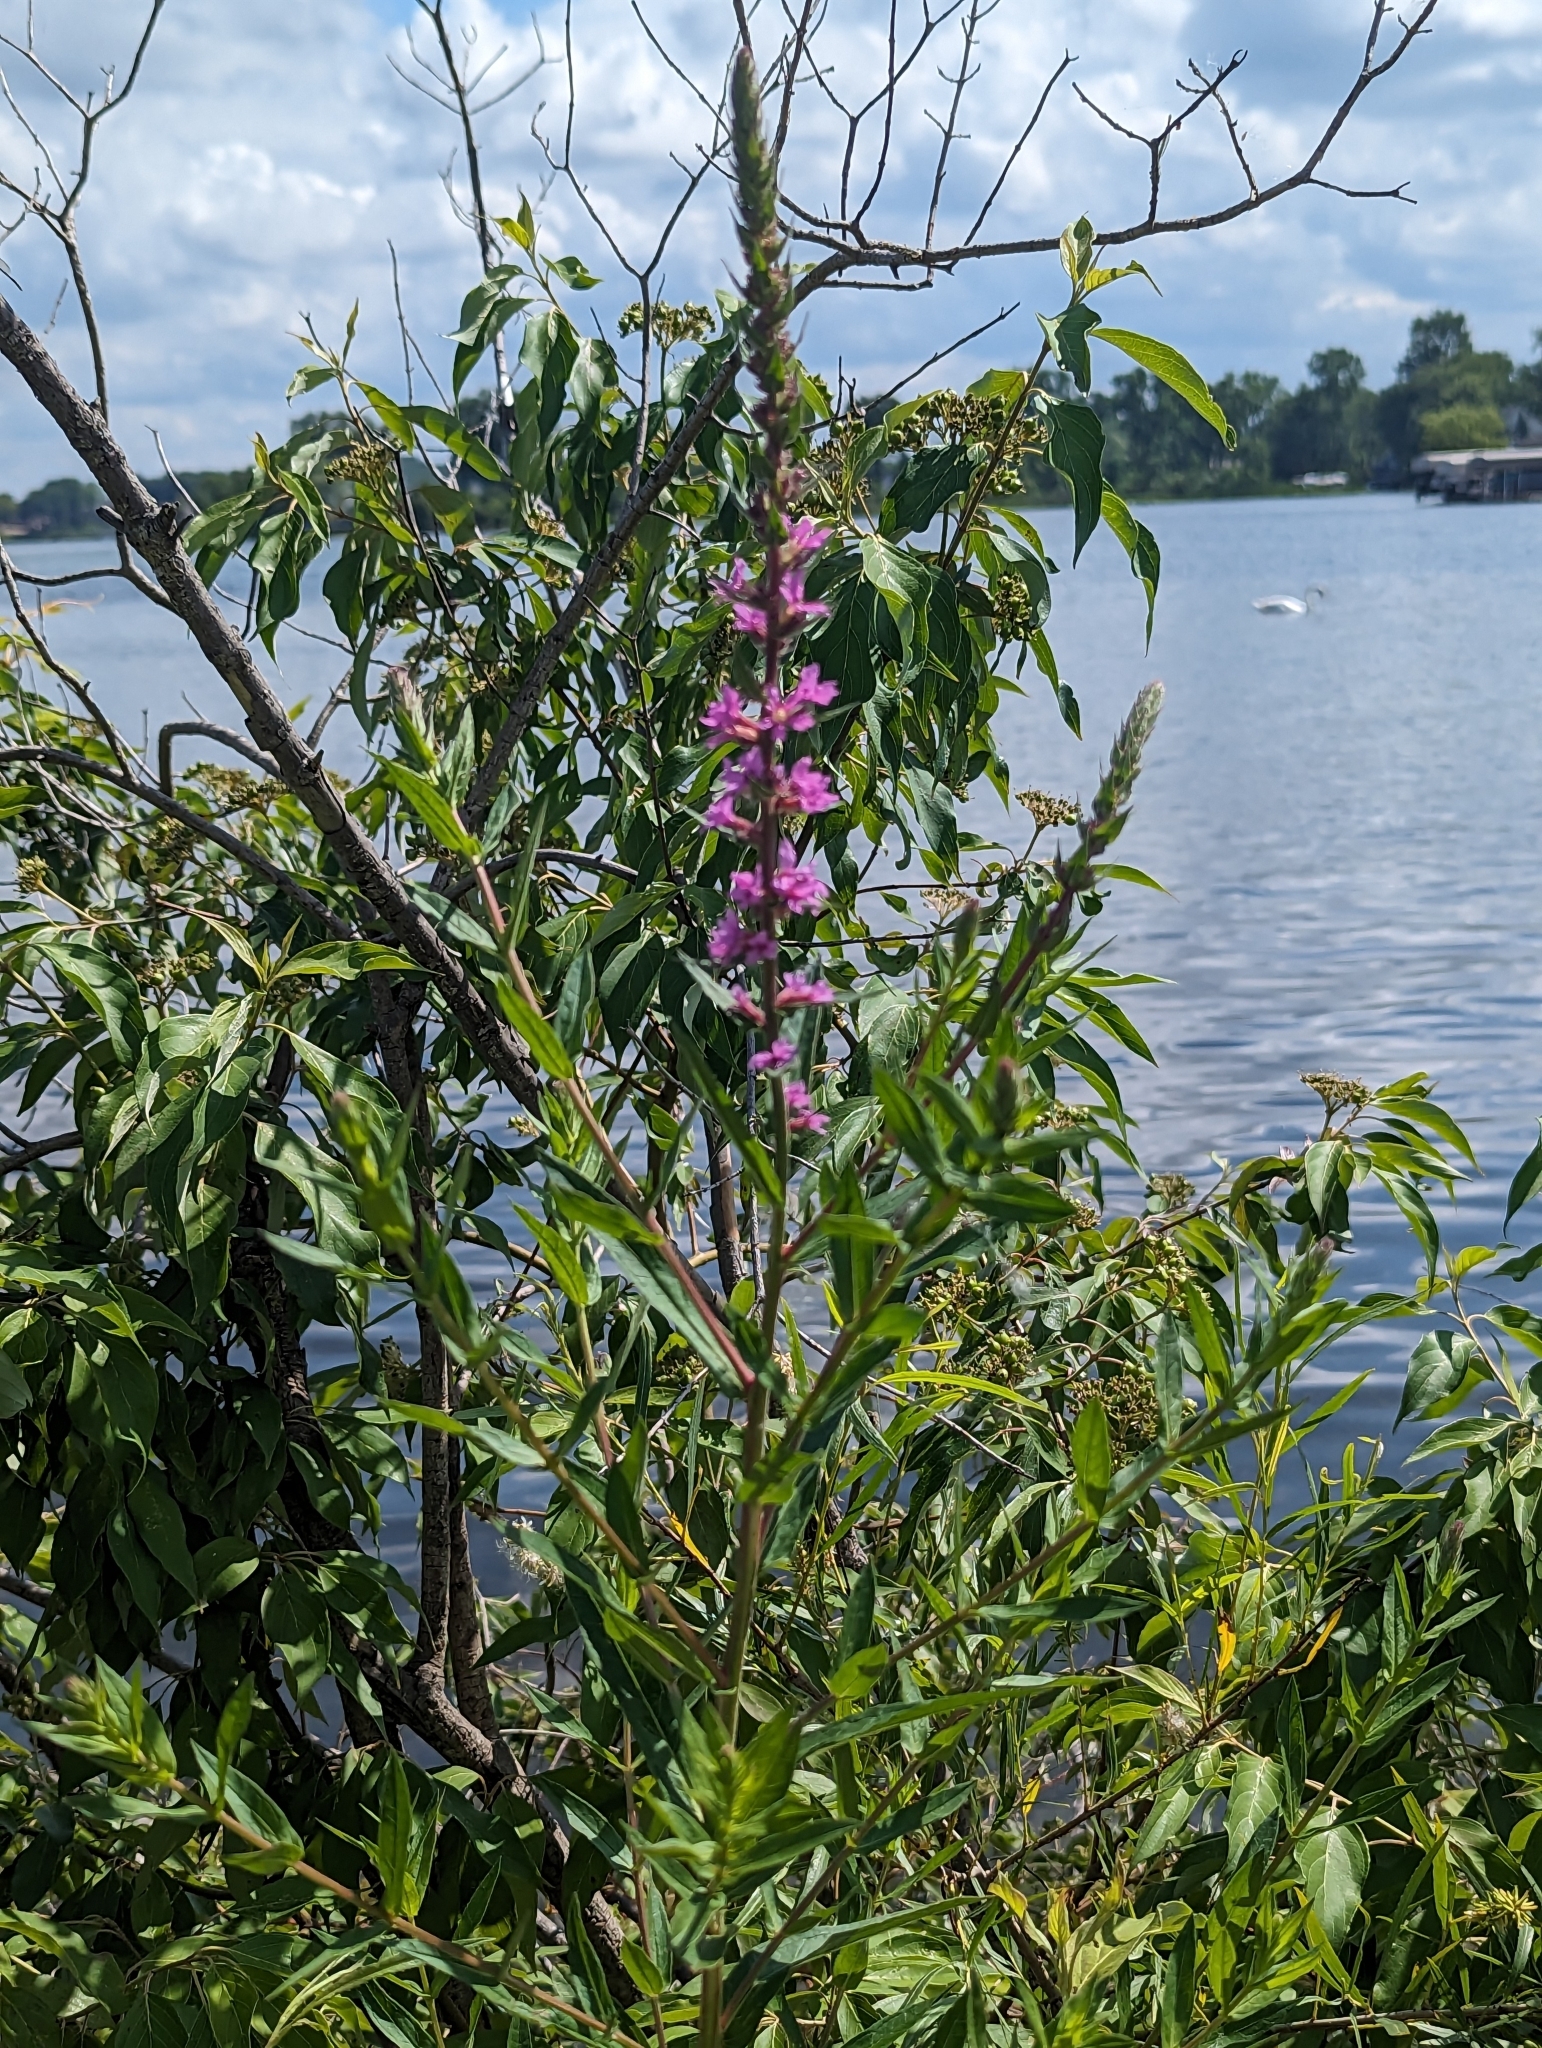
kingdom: Plantae
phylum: Tracheophyta
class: Magnoliopsida
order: Myrtales
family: Lythraceae
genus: Lythrum
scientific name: Lythrum salicaria
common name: Purple loosestrife
